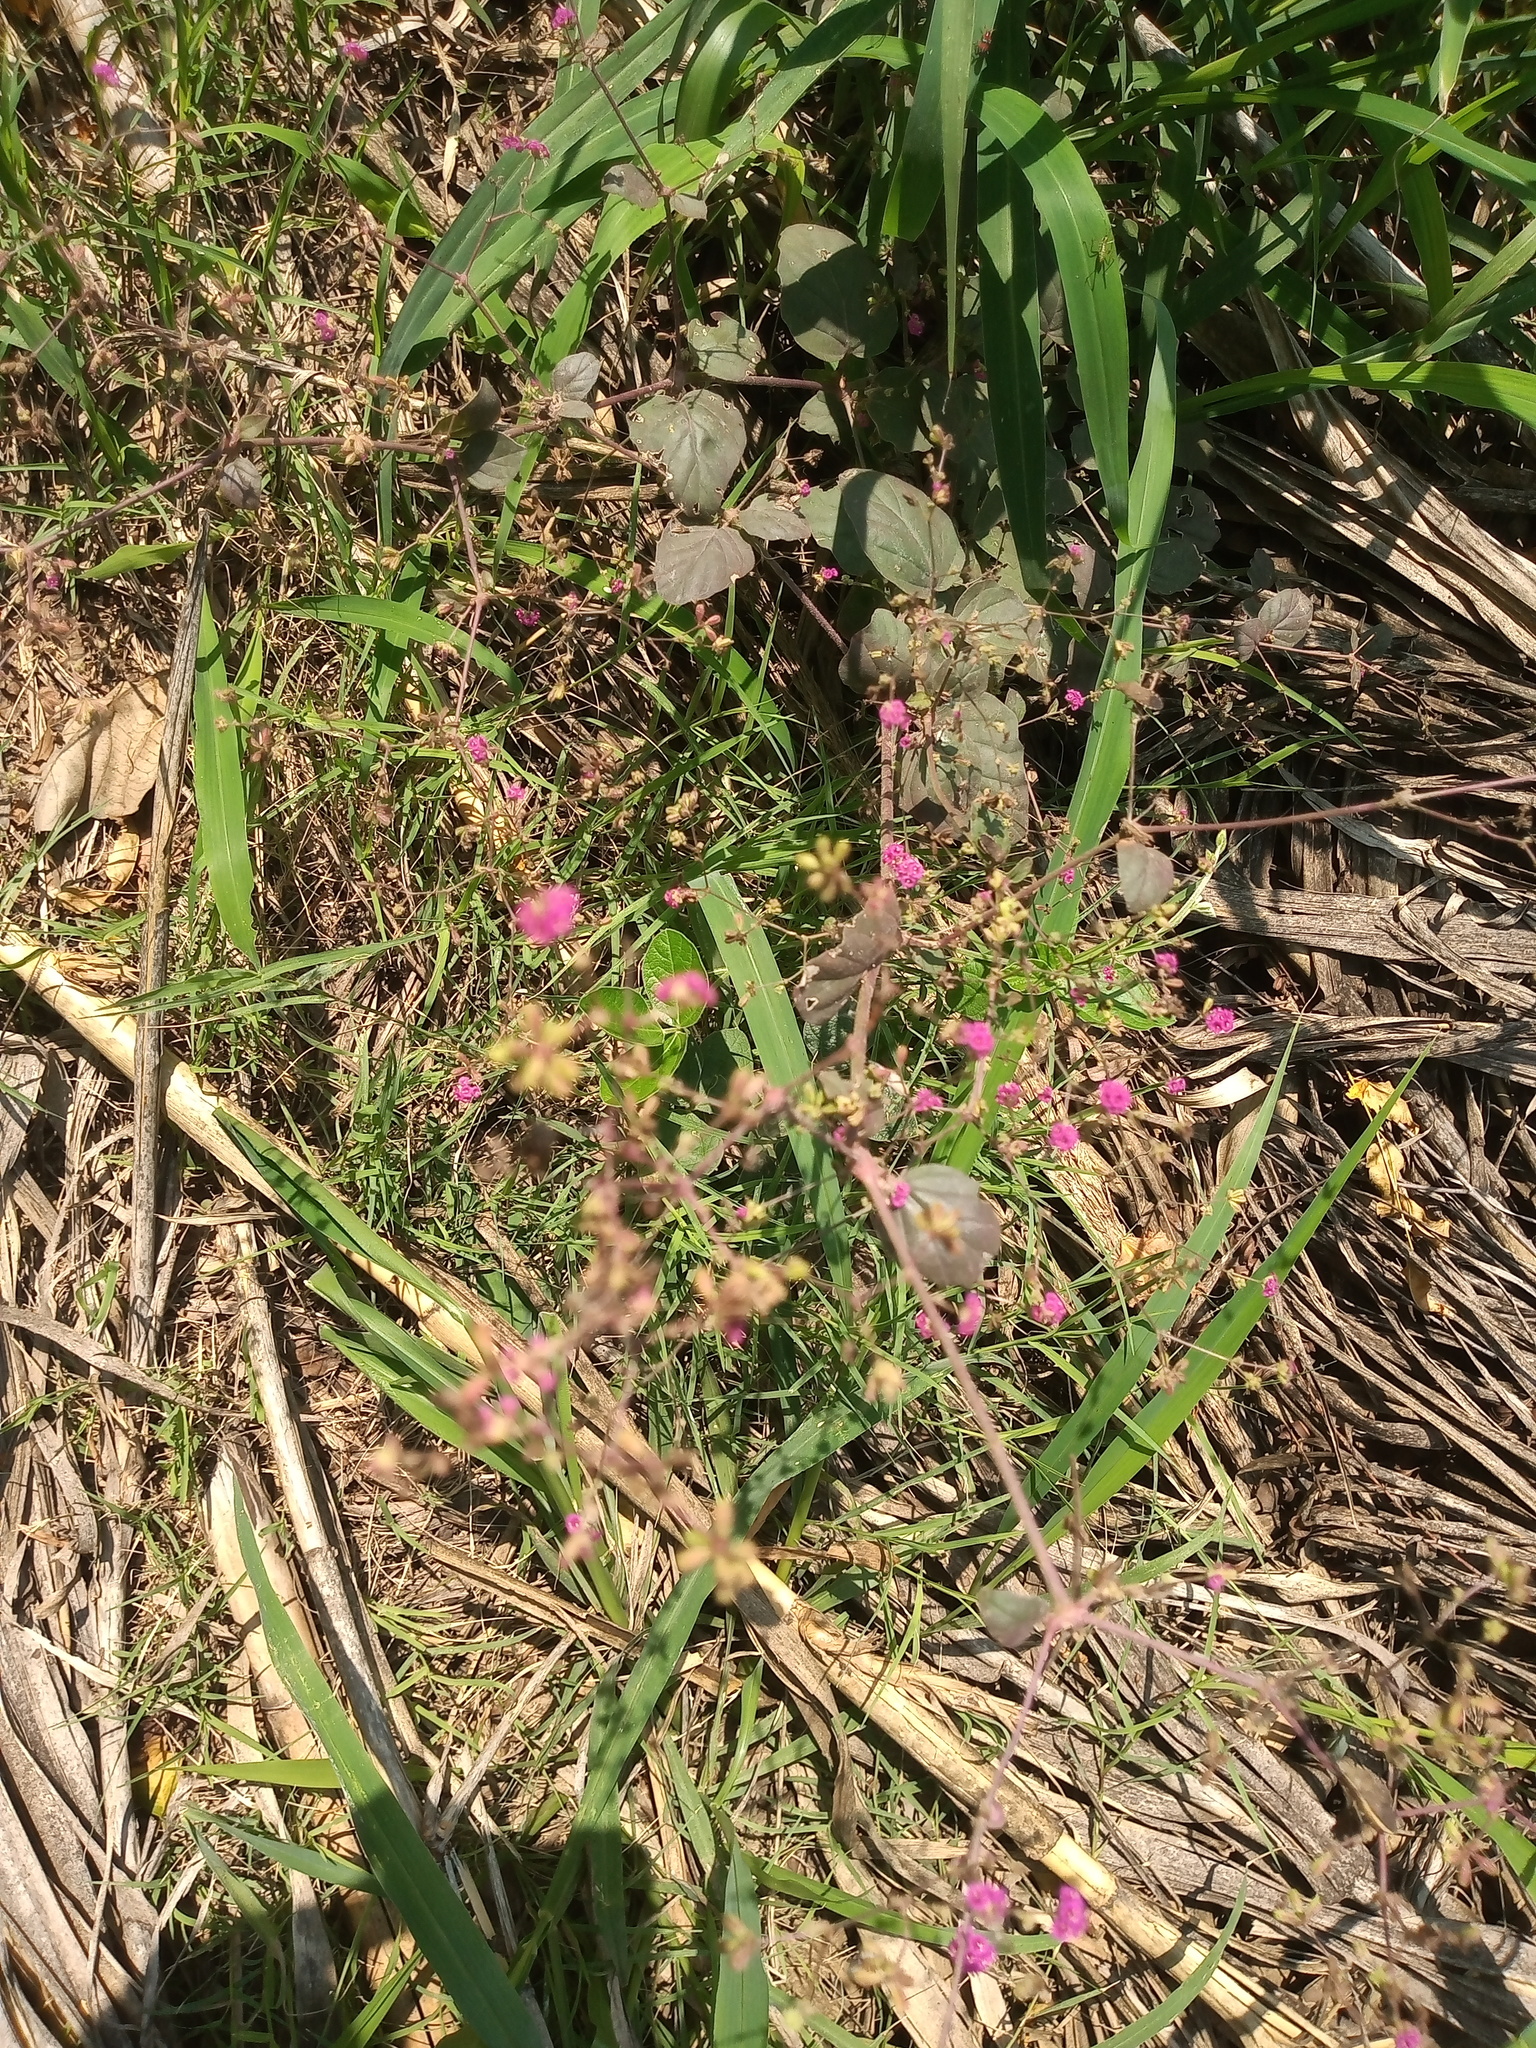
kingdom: Plantae
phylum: Tracheophyta
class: Magnoliopsida
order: Caryophyllales
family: Nyctaginaceae
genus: Boerhavia
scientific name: Boerhavia coccinea
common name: Scarlet spiderling
